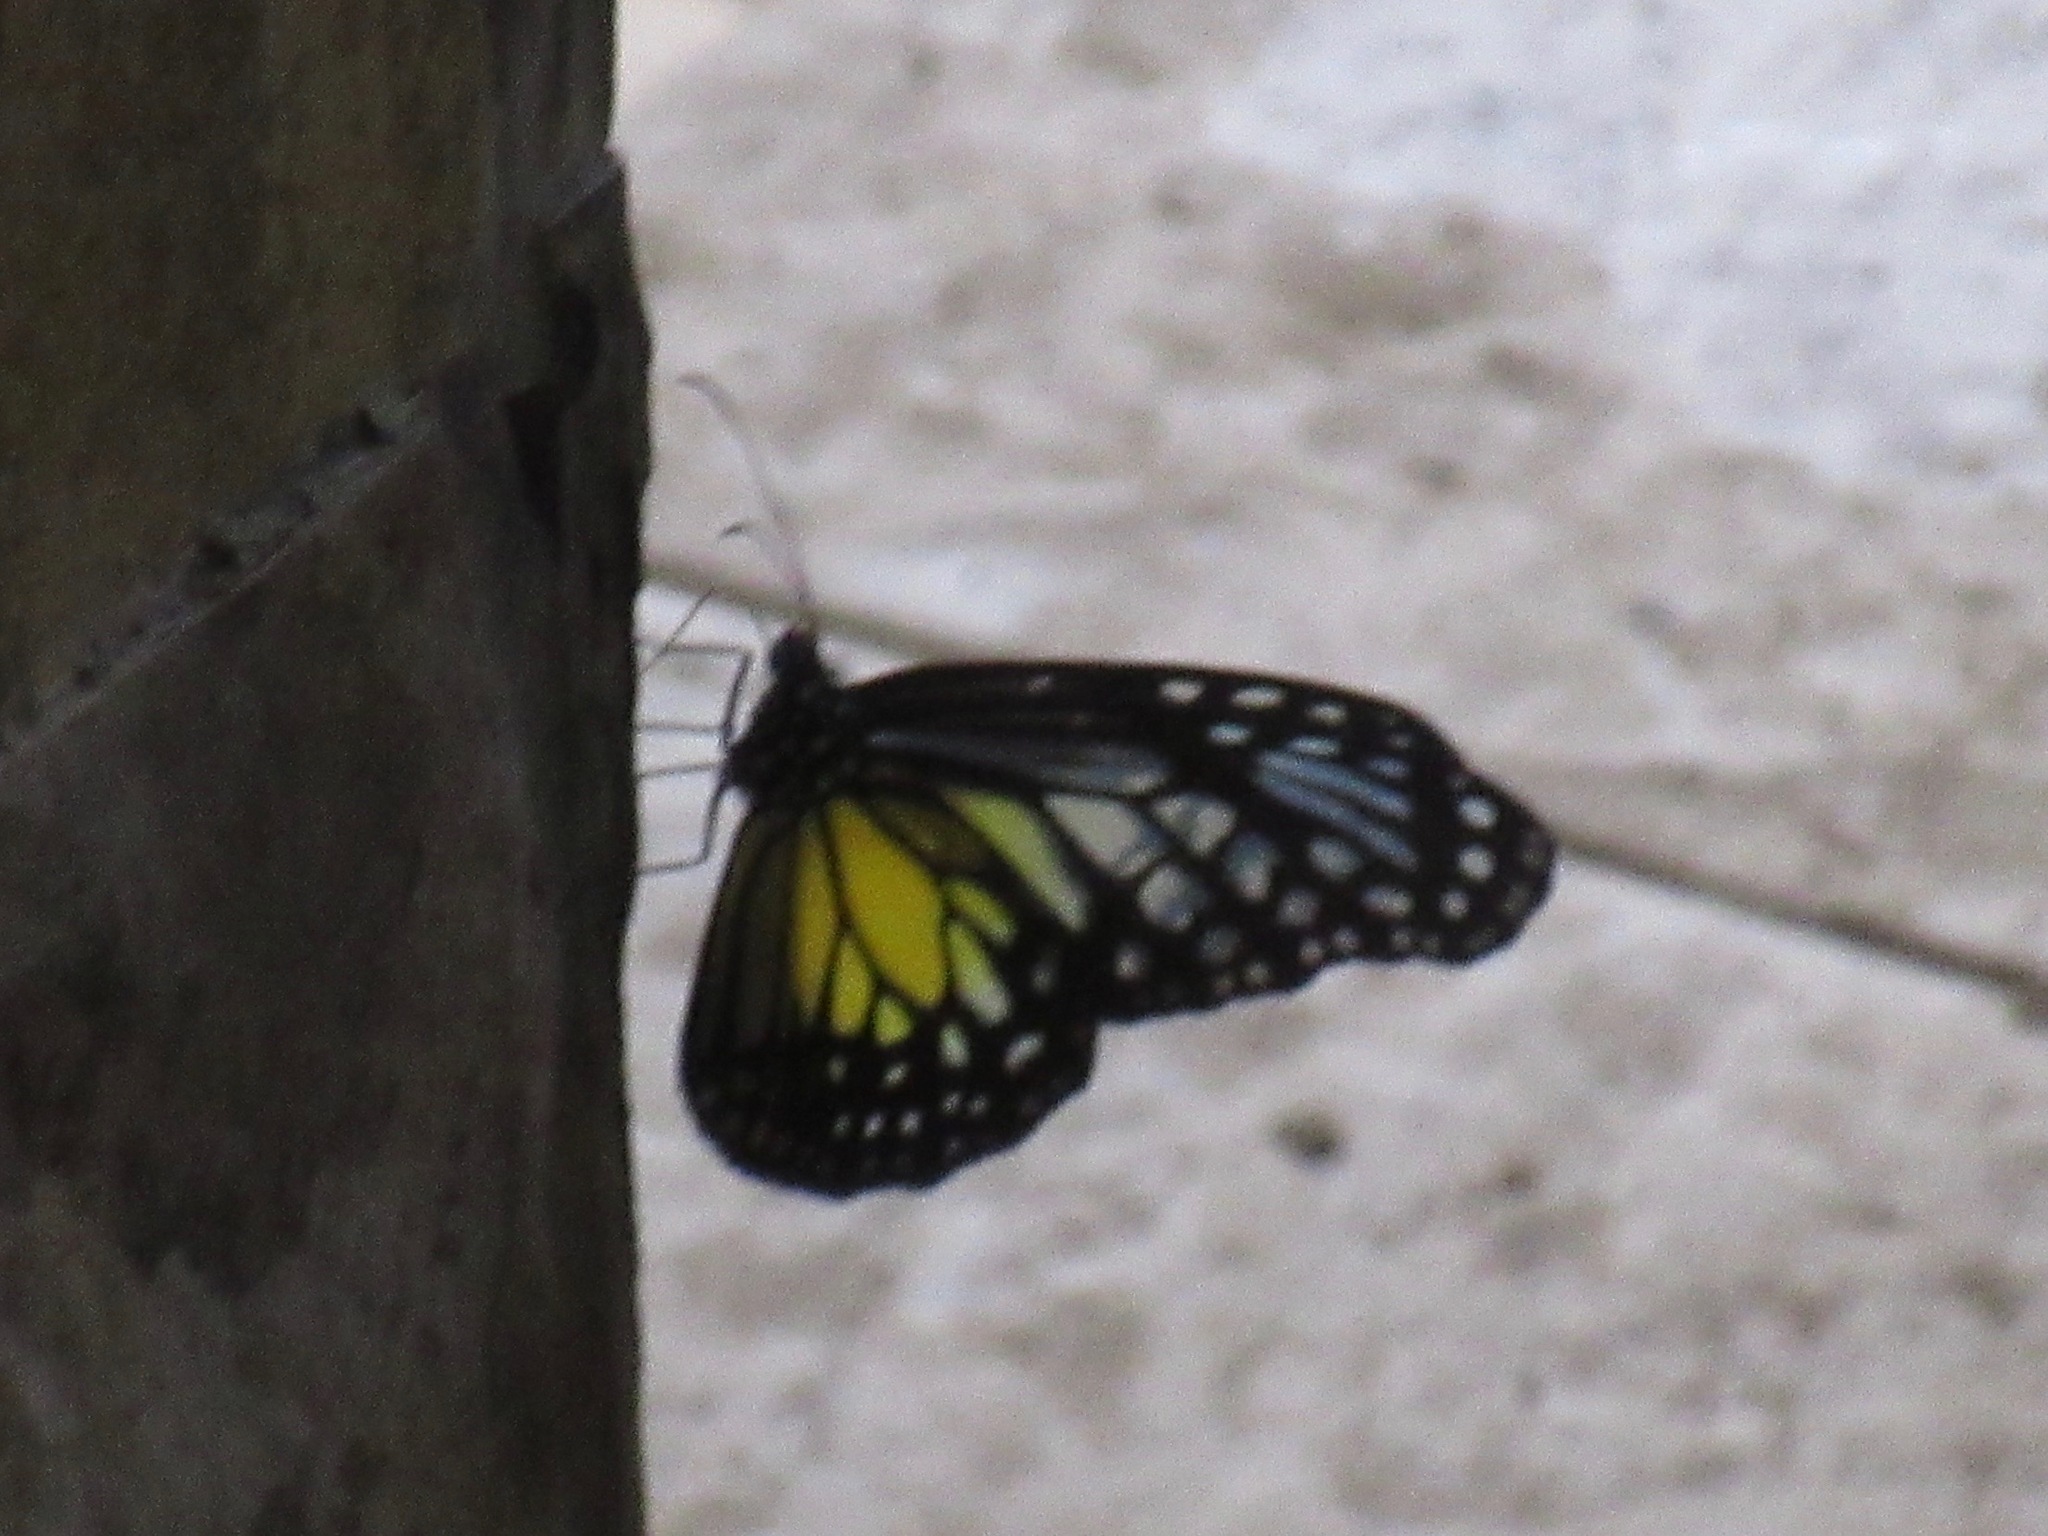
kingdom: Animalia
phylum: Arthropoda
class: Insecta
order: Lepidoptera
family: Nymphalidae
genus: Parantica
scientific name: Parantica aspasia
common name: Yellow glassy tiger
